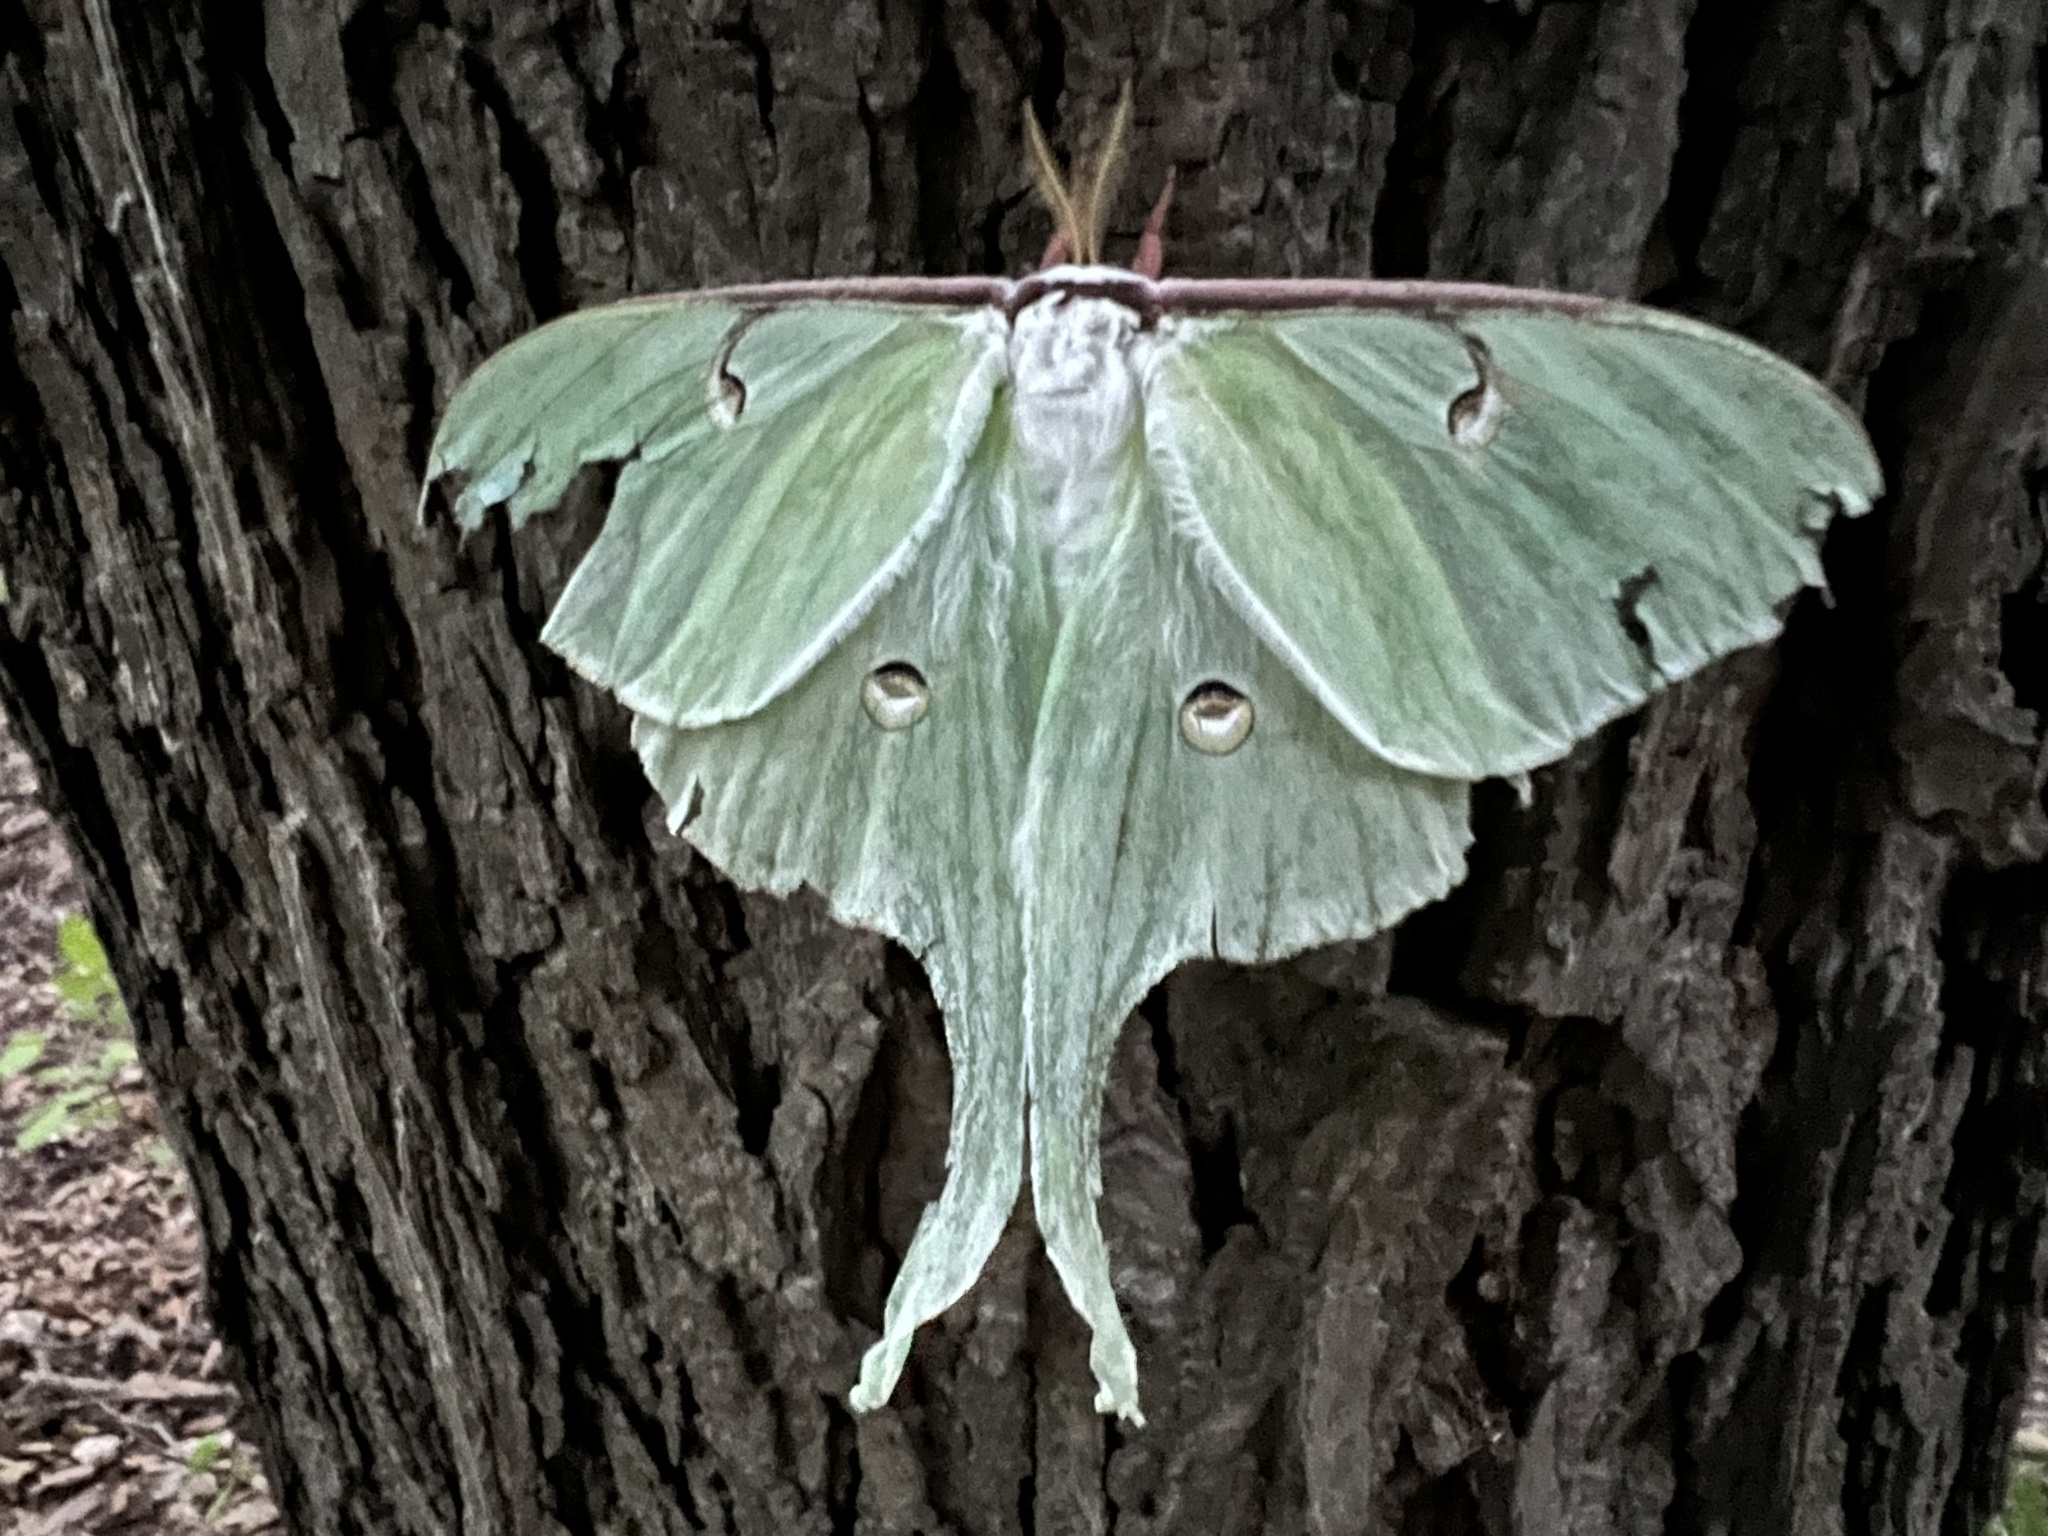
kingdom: Animalia
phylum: Arthropoda
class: Insecta
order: Lepidoptera
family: Saturniidae
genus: Actias
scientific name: Actias luna
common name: Luna moth
